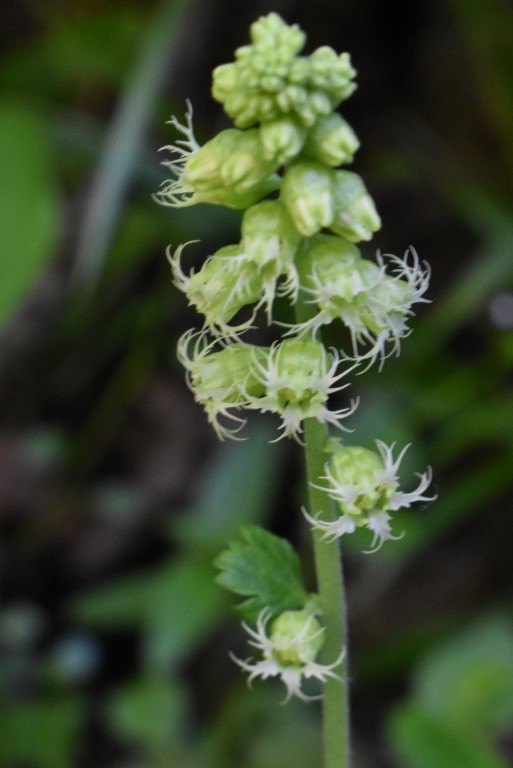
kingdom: Plantae
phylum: Tracheophyta
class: Magnoliopsida
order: Saxifragales
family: Saxifragaceae
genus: Tellima
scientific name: Tellima grandiflora
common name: Fringecups
